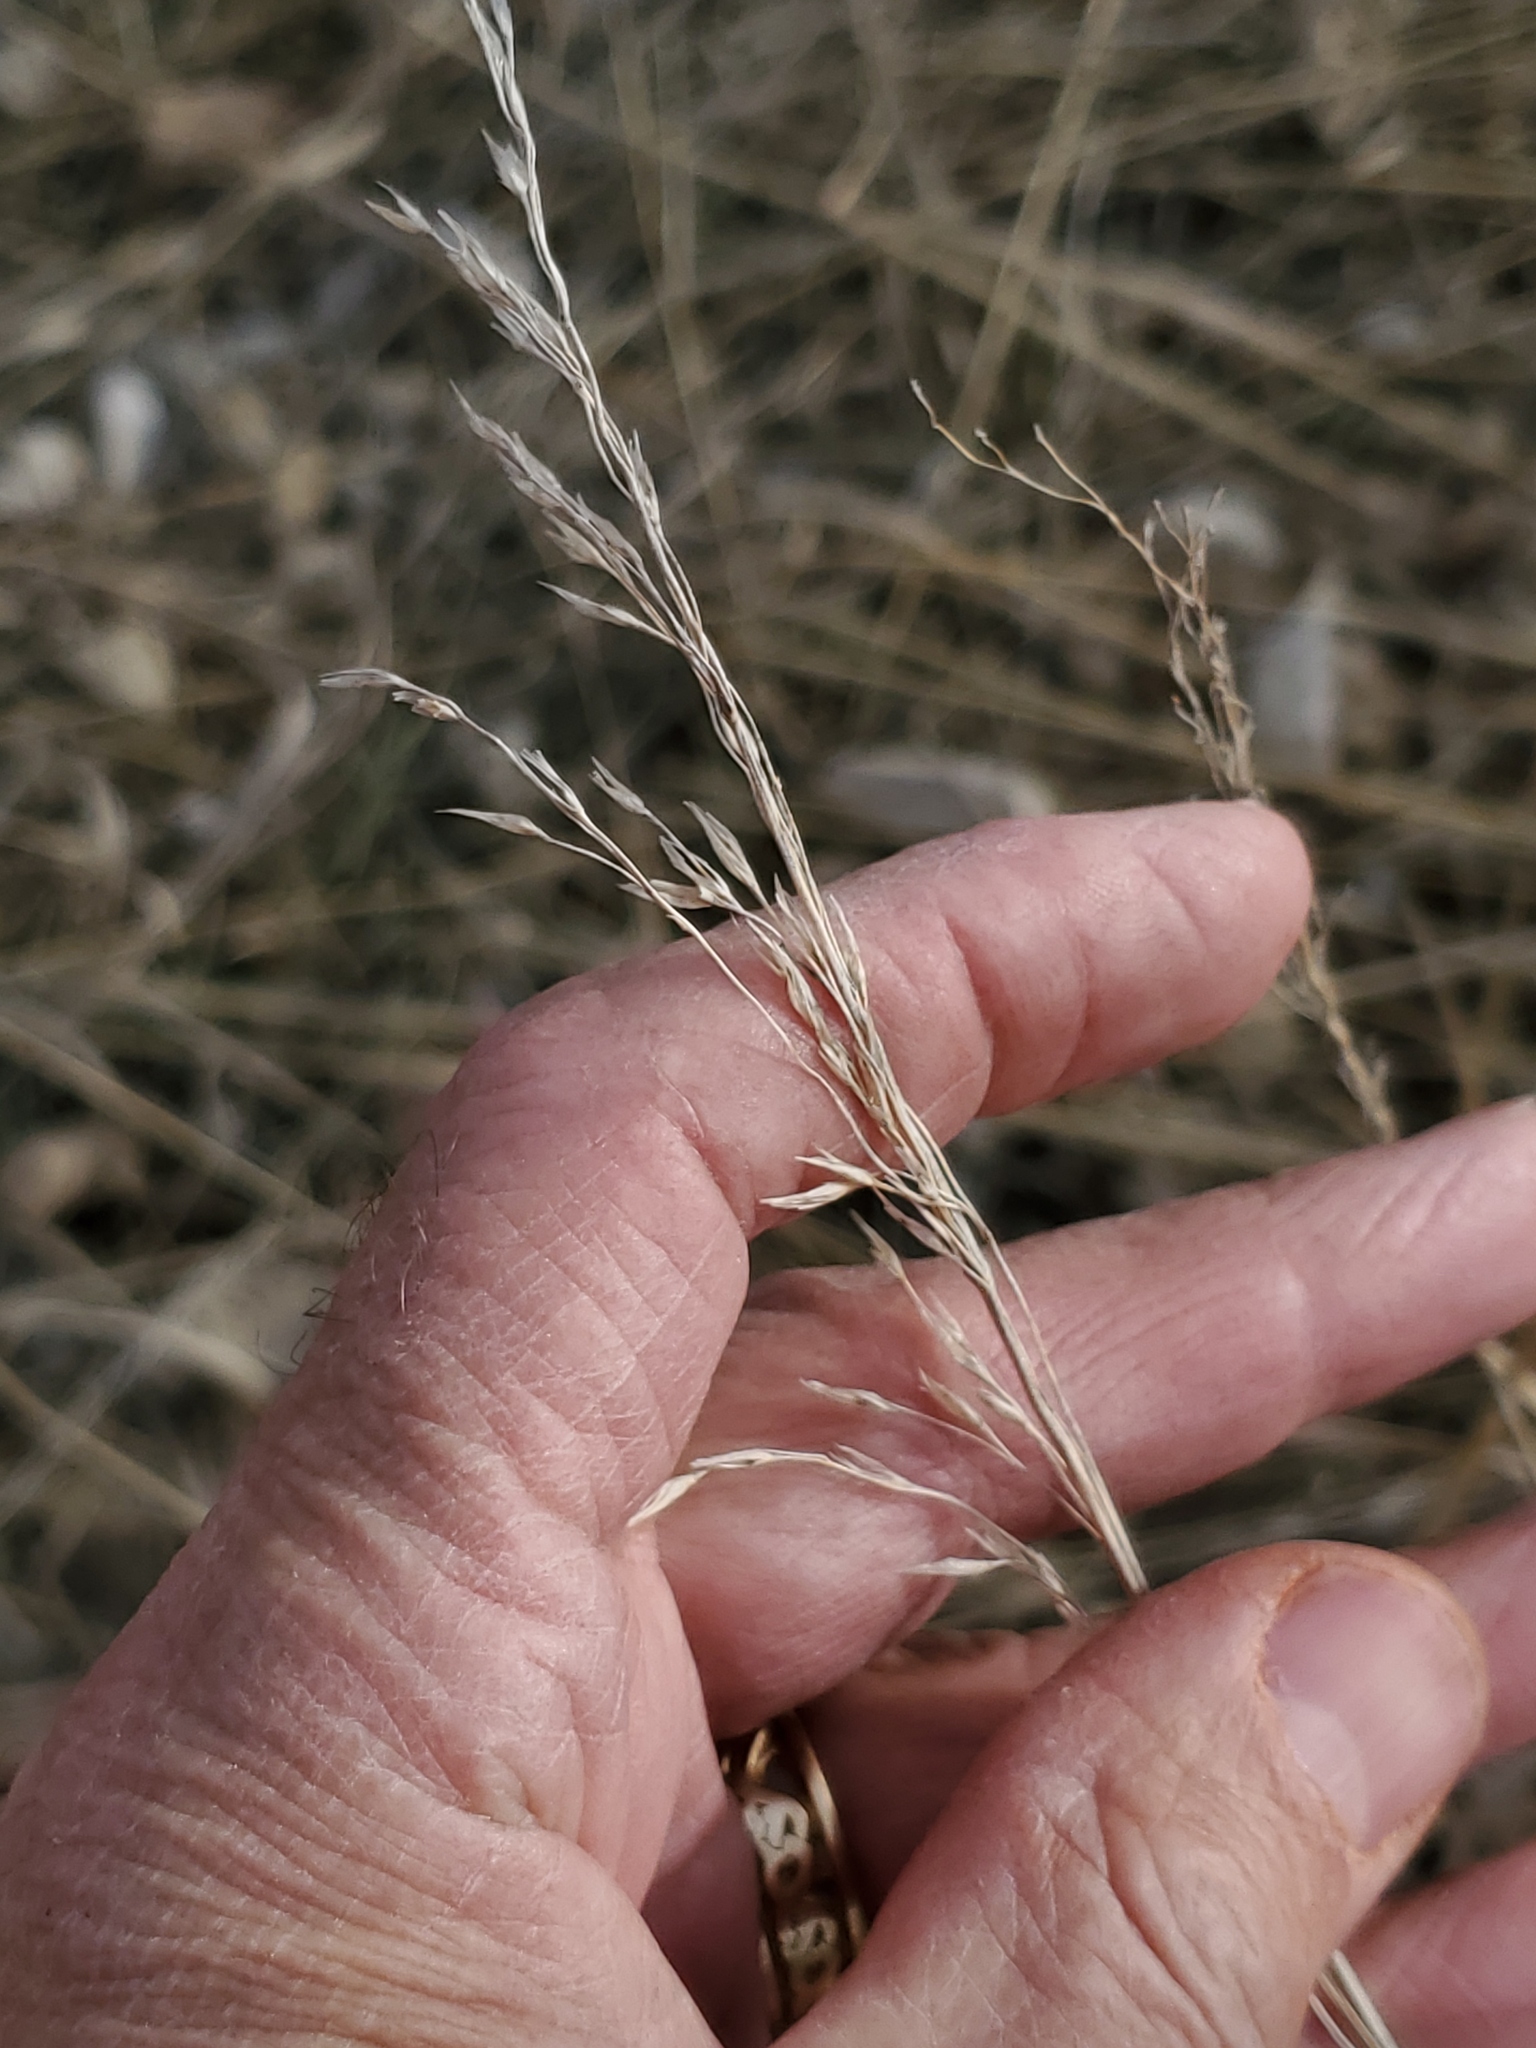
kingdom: Plantae
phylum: Tracheophyta
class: Liliopsida
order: Poales
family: Poaceae
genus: Bromus
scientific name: Bromus inermis
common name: Smooth brome
